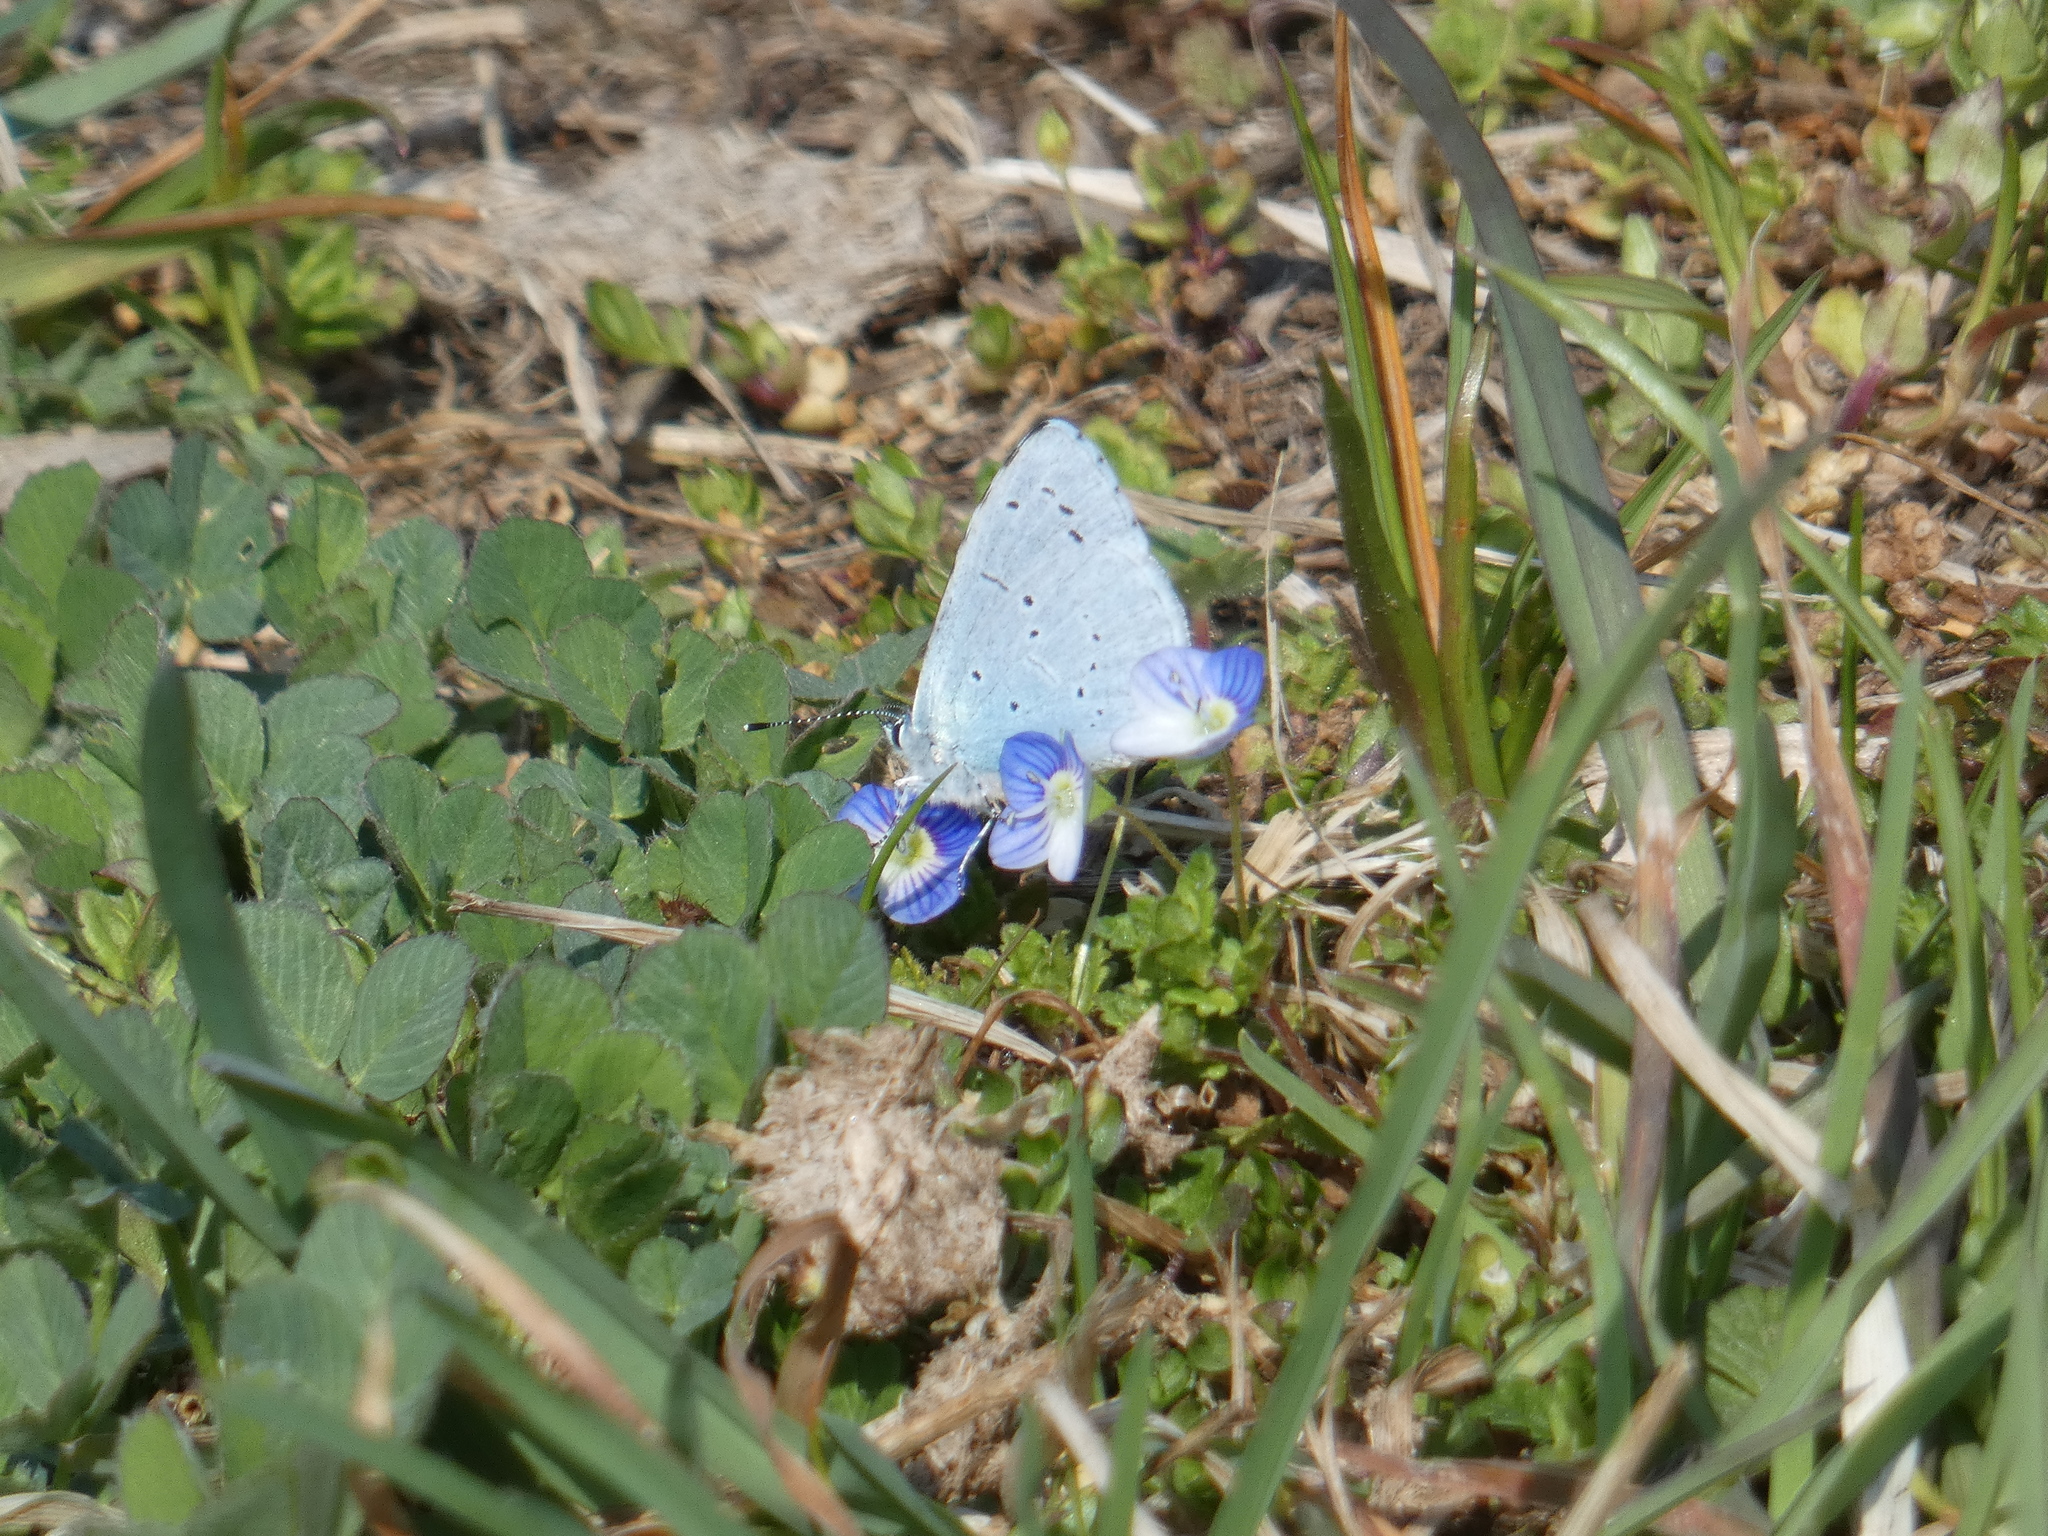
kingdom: Animalia
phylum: Arthropoda
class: Insecta
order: Lepidoptera
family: Lycaenidae
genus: Celastrina
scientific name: Celastrina argiolus
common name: Holly blue
